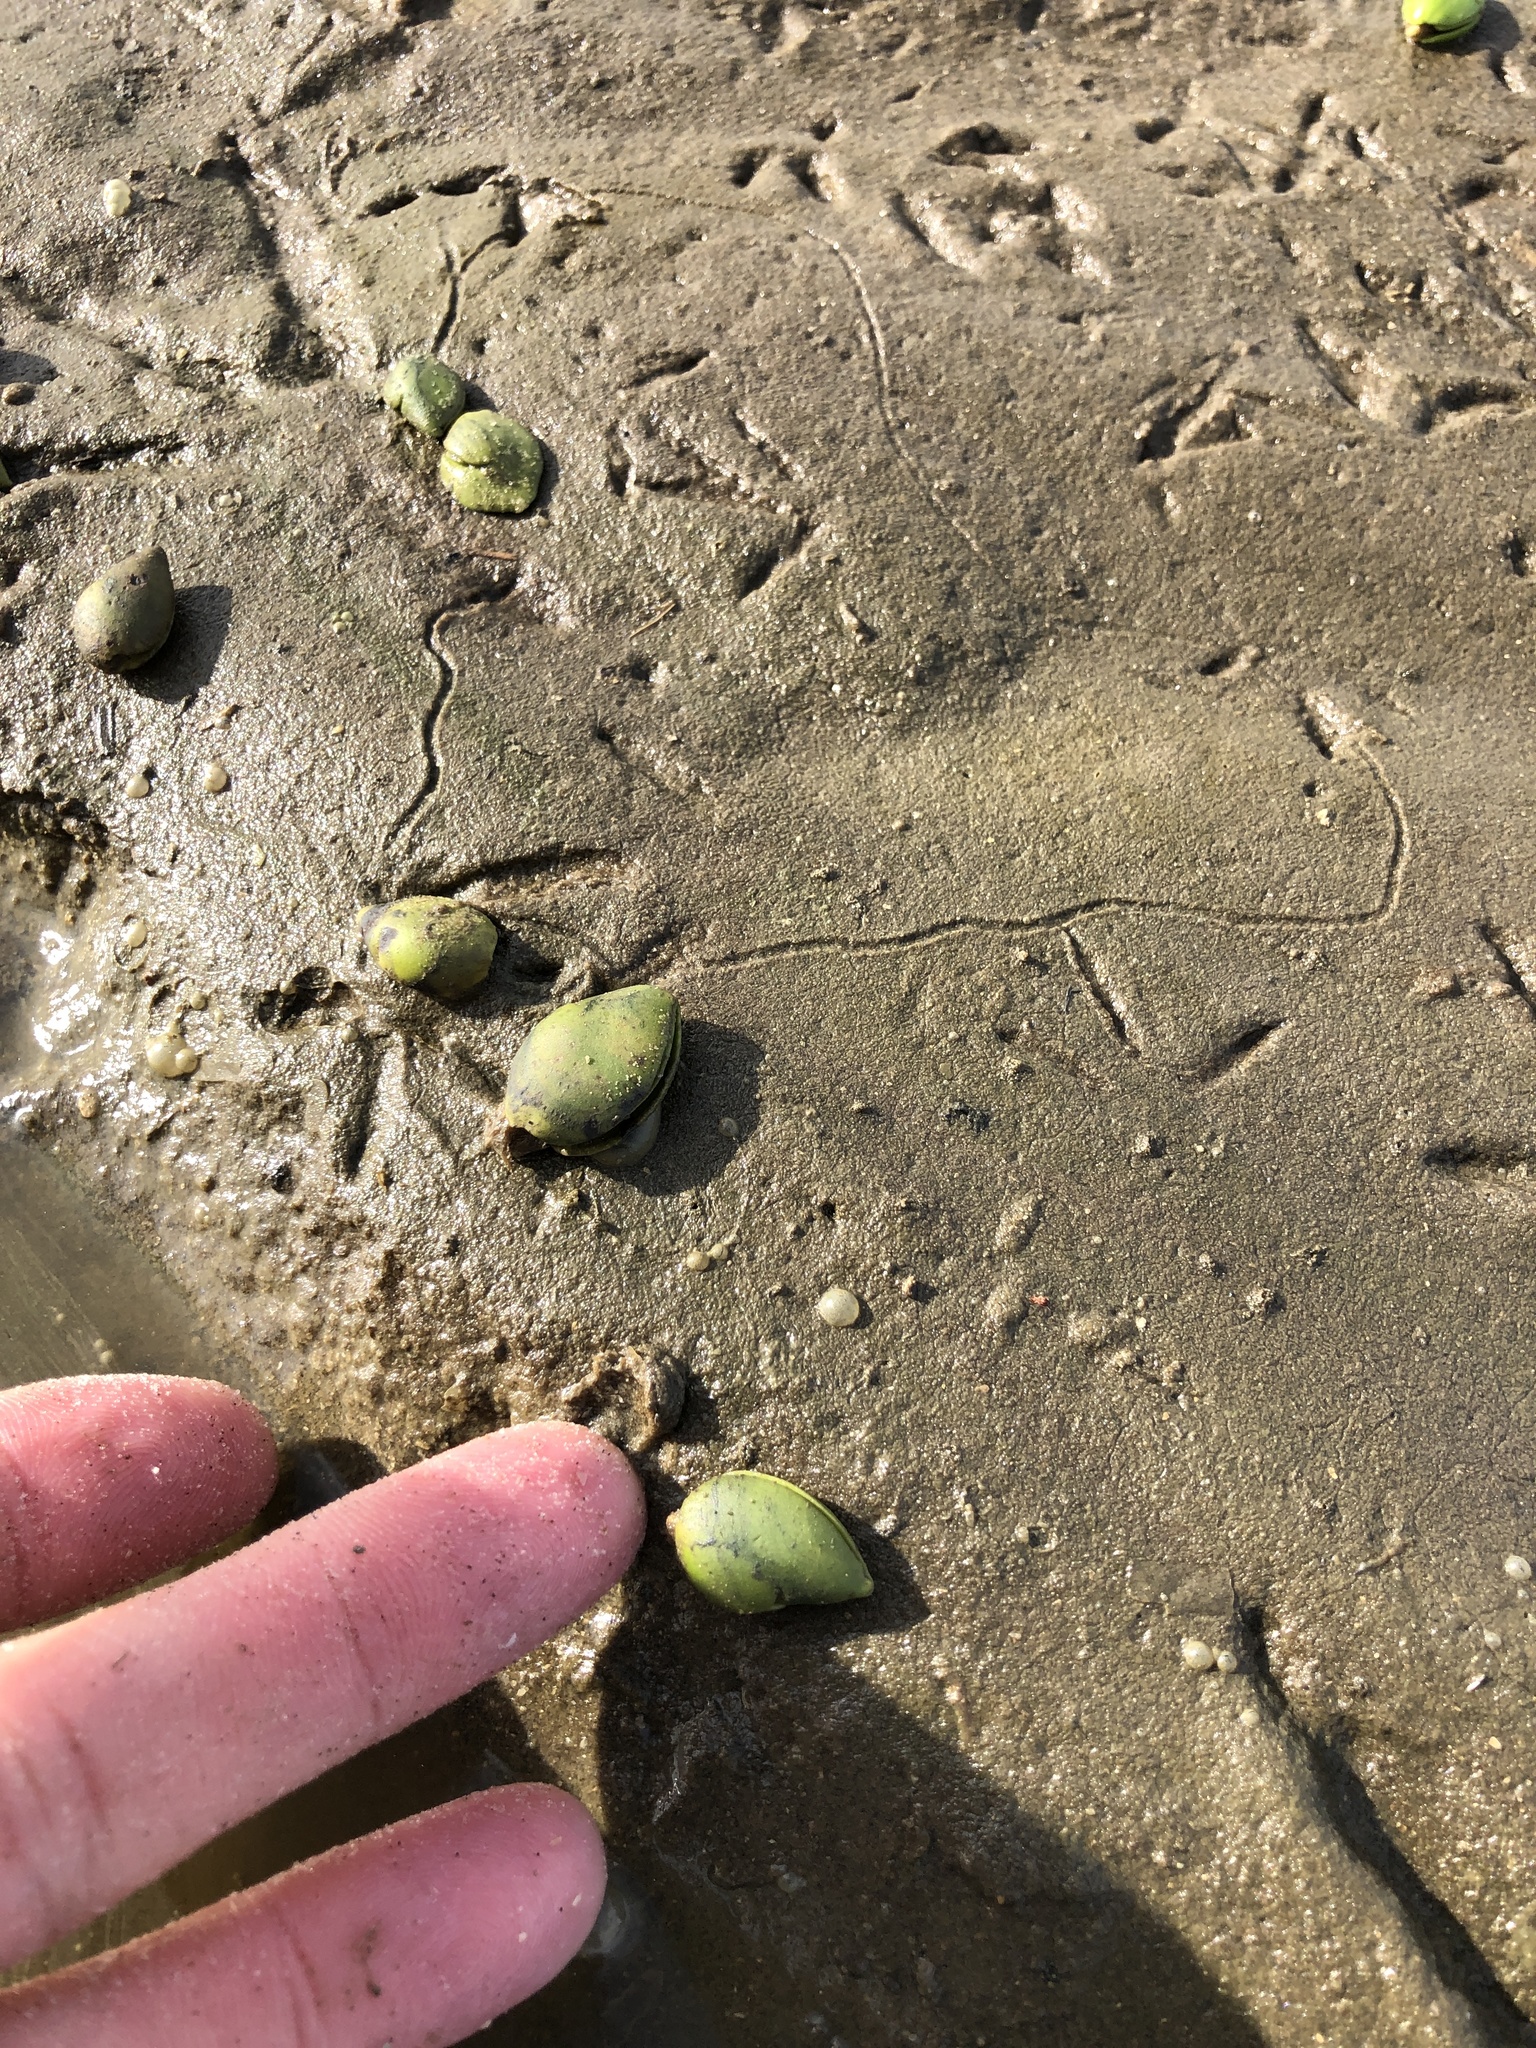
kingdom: Plantae
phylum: Tracheophyta
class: Magnoliopsida
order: Lamiales
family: Acanthaceae
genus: Avicennia
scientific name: Avicennia germinans
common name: Black mangrove
